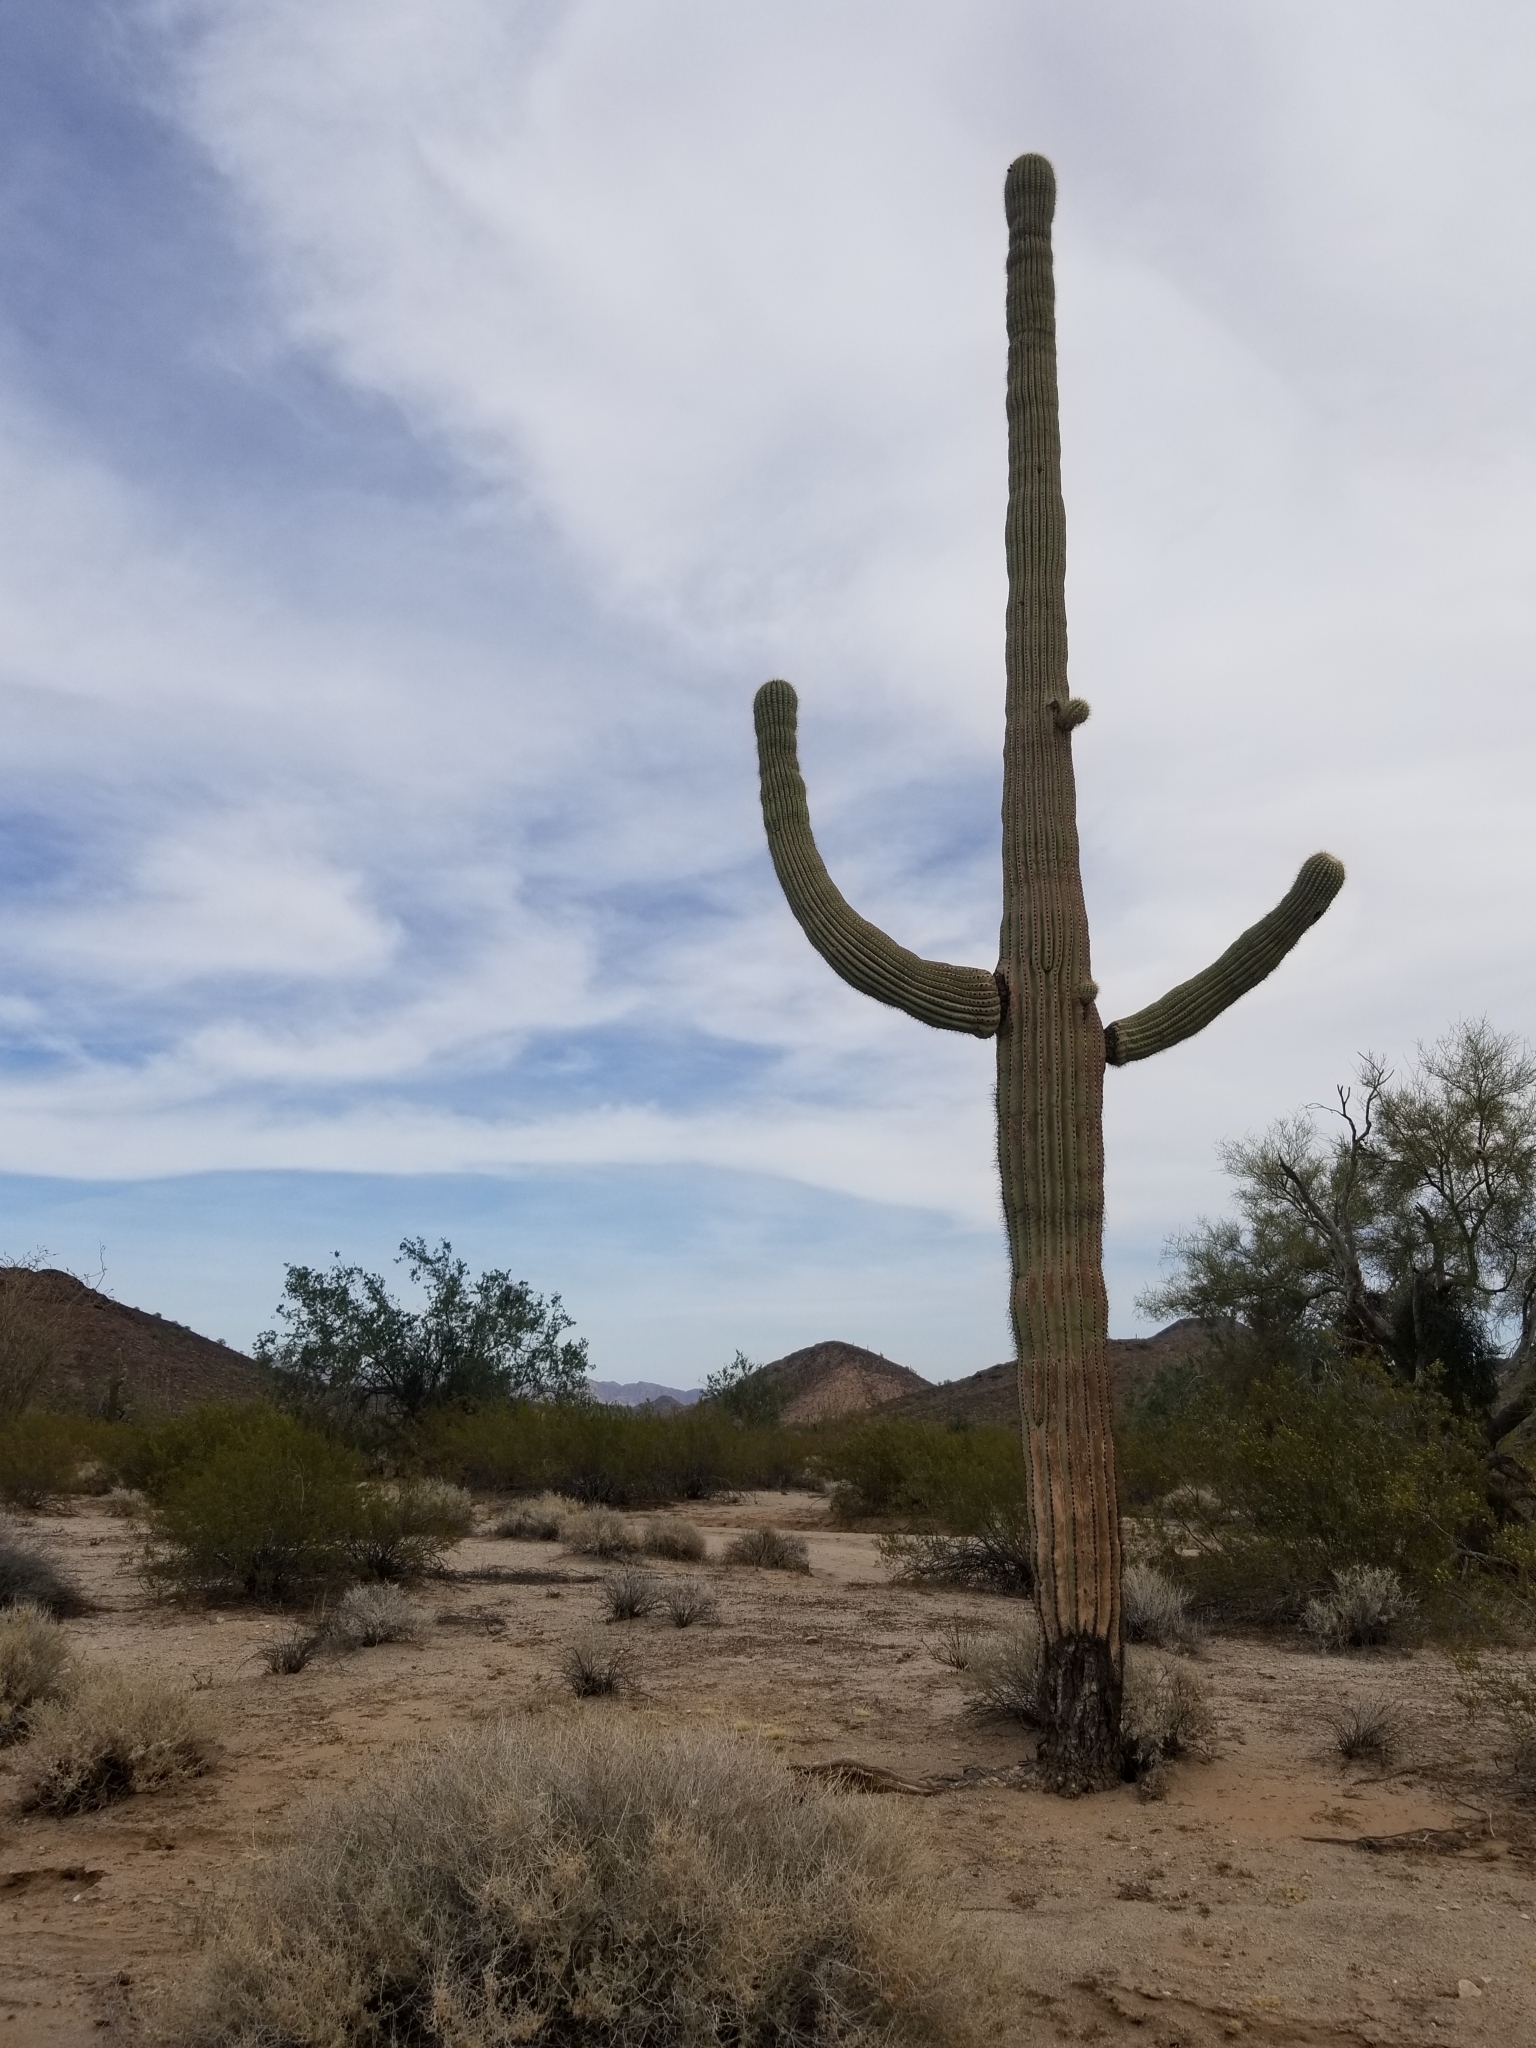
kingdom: Plantae
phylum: Tracheophyta
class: Magnoliopsida
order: Caryophyllales
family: Cactaceae
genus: Carnegiea
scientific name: Carnegiea gigantea
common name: Saguaro
